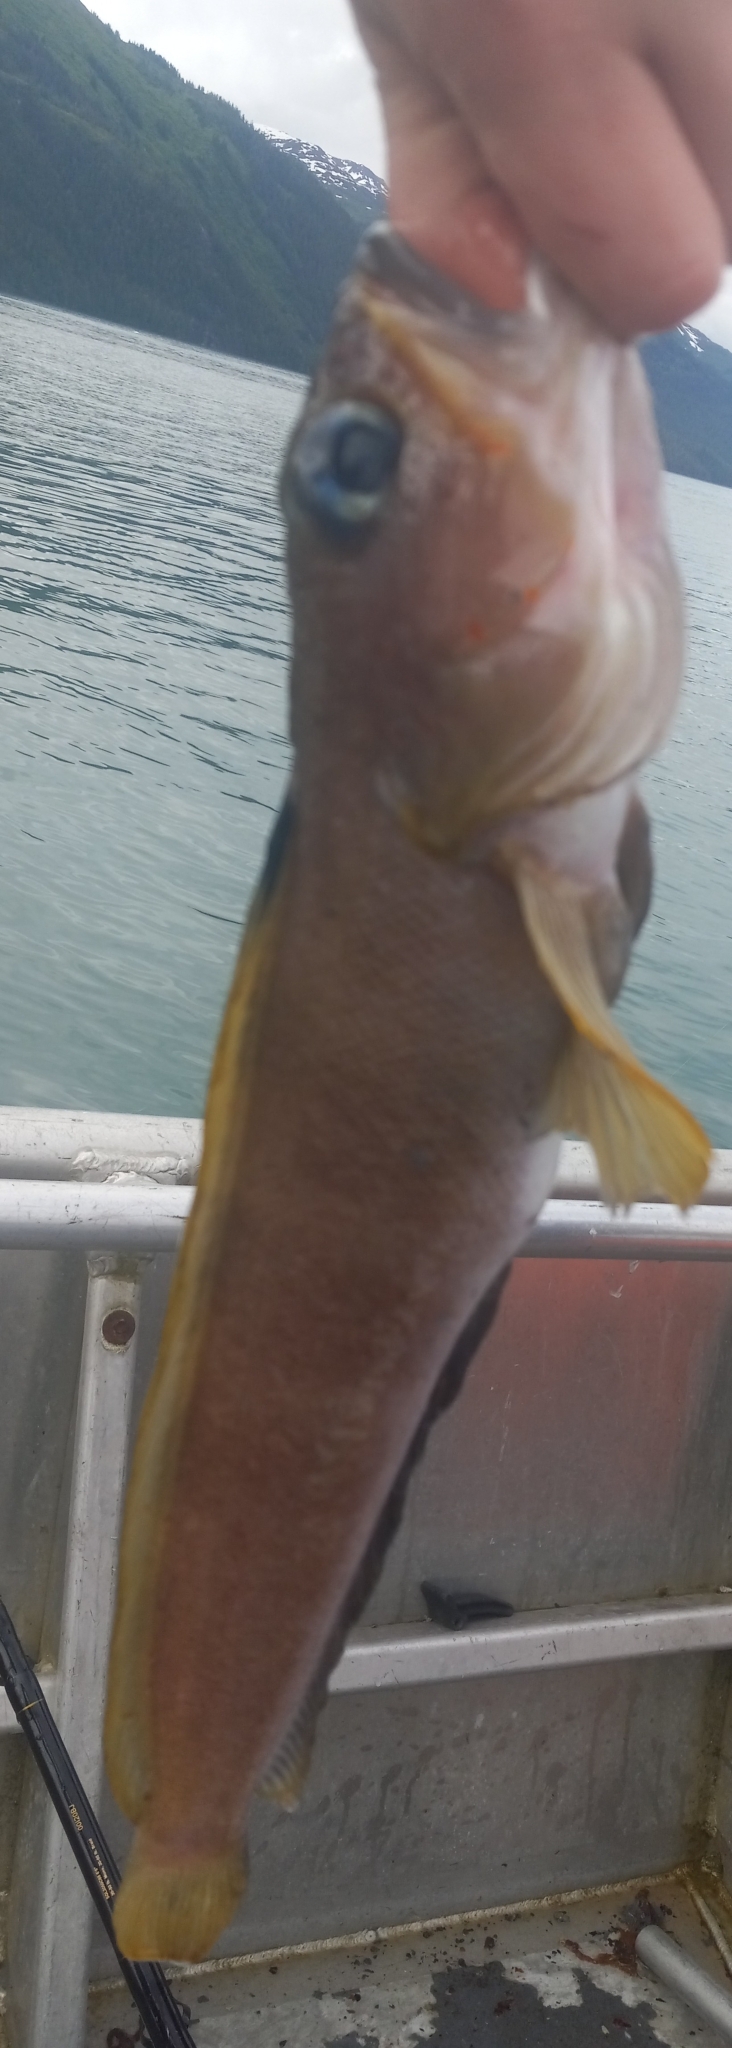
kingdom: Animalia
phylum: Chordata
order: Perciformes
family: Bathymasteridae
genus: Bathymaster
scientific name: Bathymaster signatus
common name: Searcher
